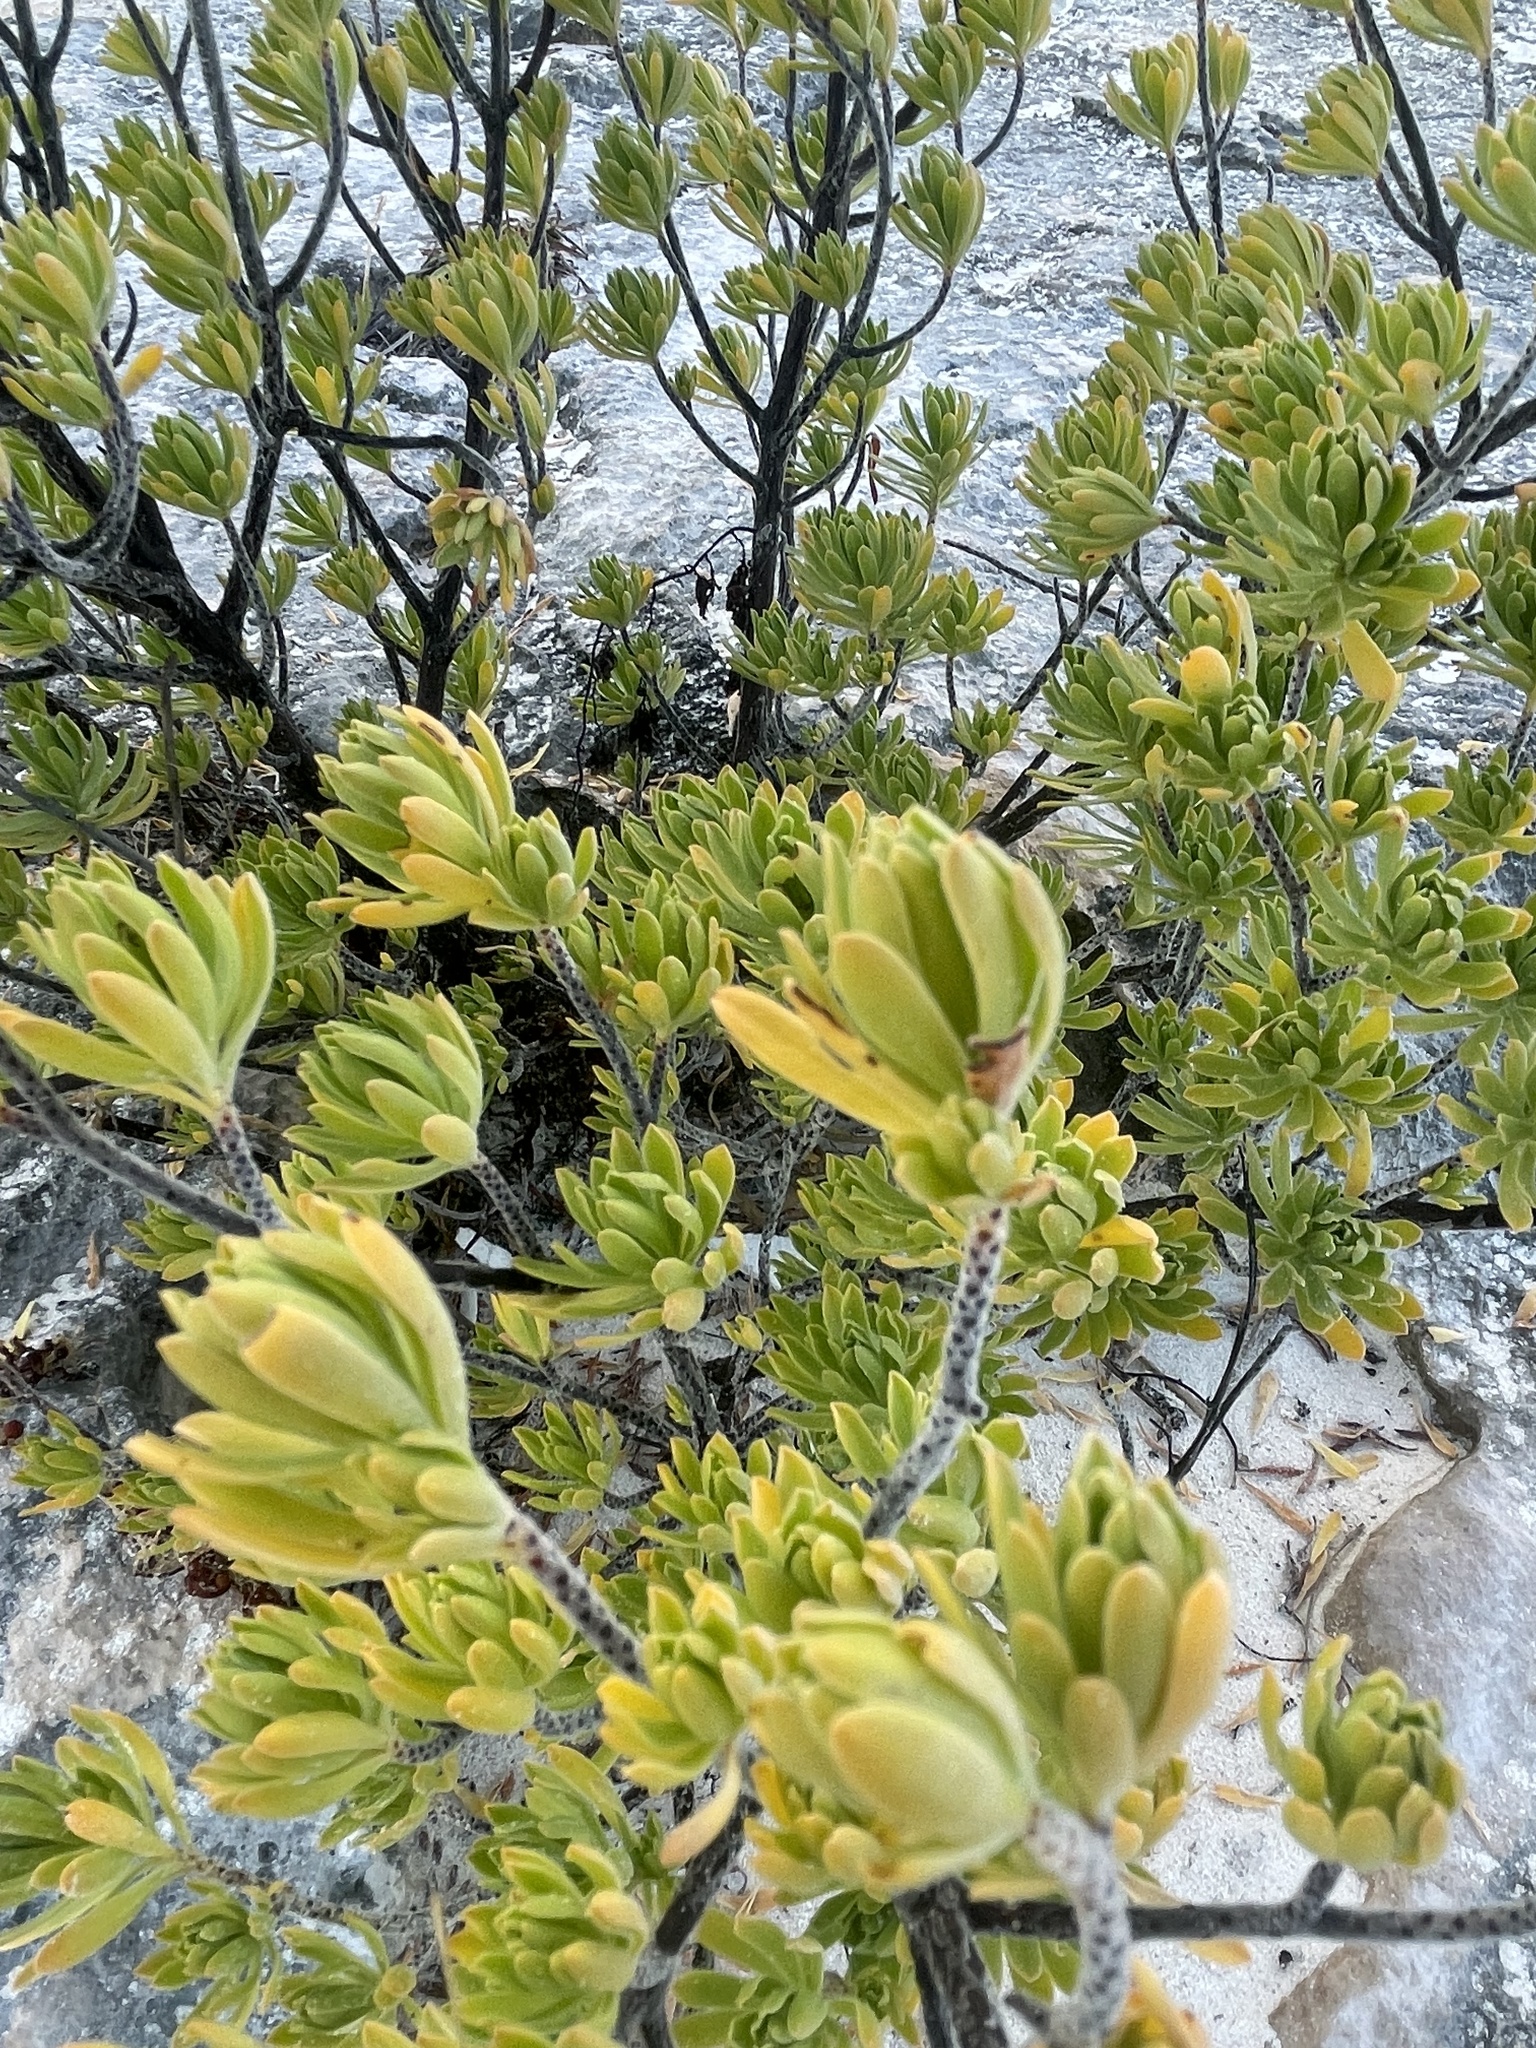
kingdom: Plantae
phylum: Tracheophyta
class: Magnoliopsida
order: Fabales
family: Surianaceae
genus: Suriana
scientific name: Suriana maritima
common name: Bay-cedar
